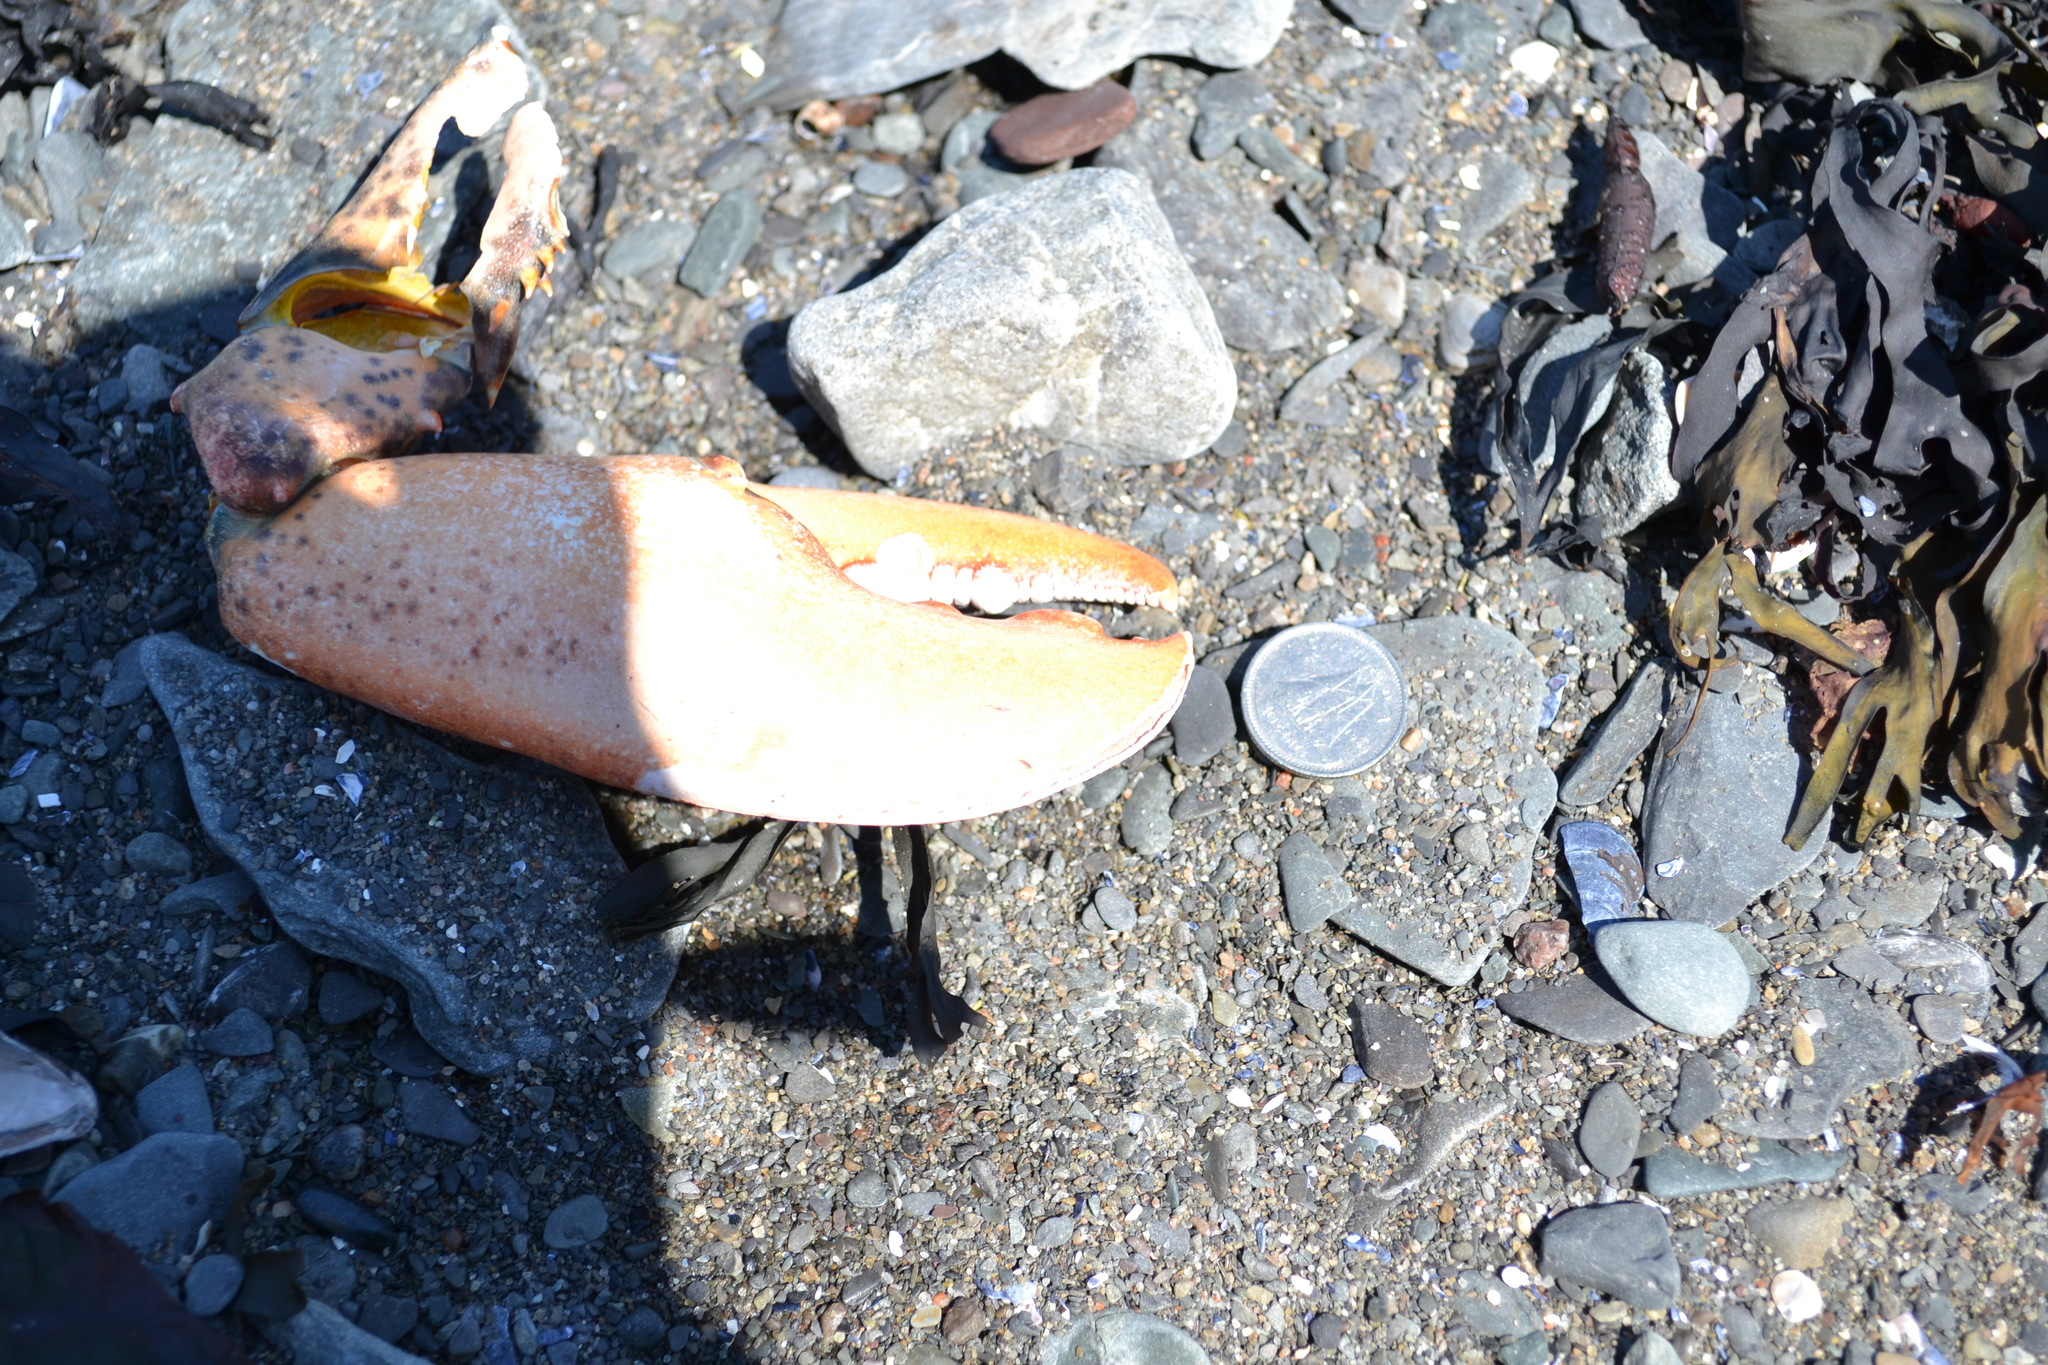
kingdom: Animalia
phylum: Arthropoda
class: Malacostraca
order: Decapoda
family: Nephropidae
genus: Homarus
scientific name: Homarus americanus
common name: American lobster
